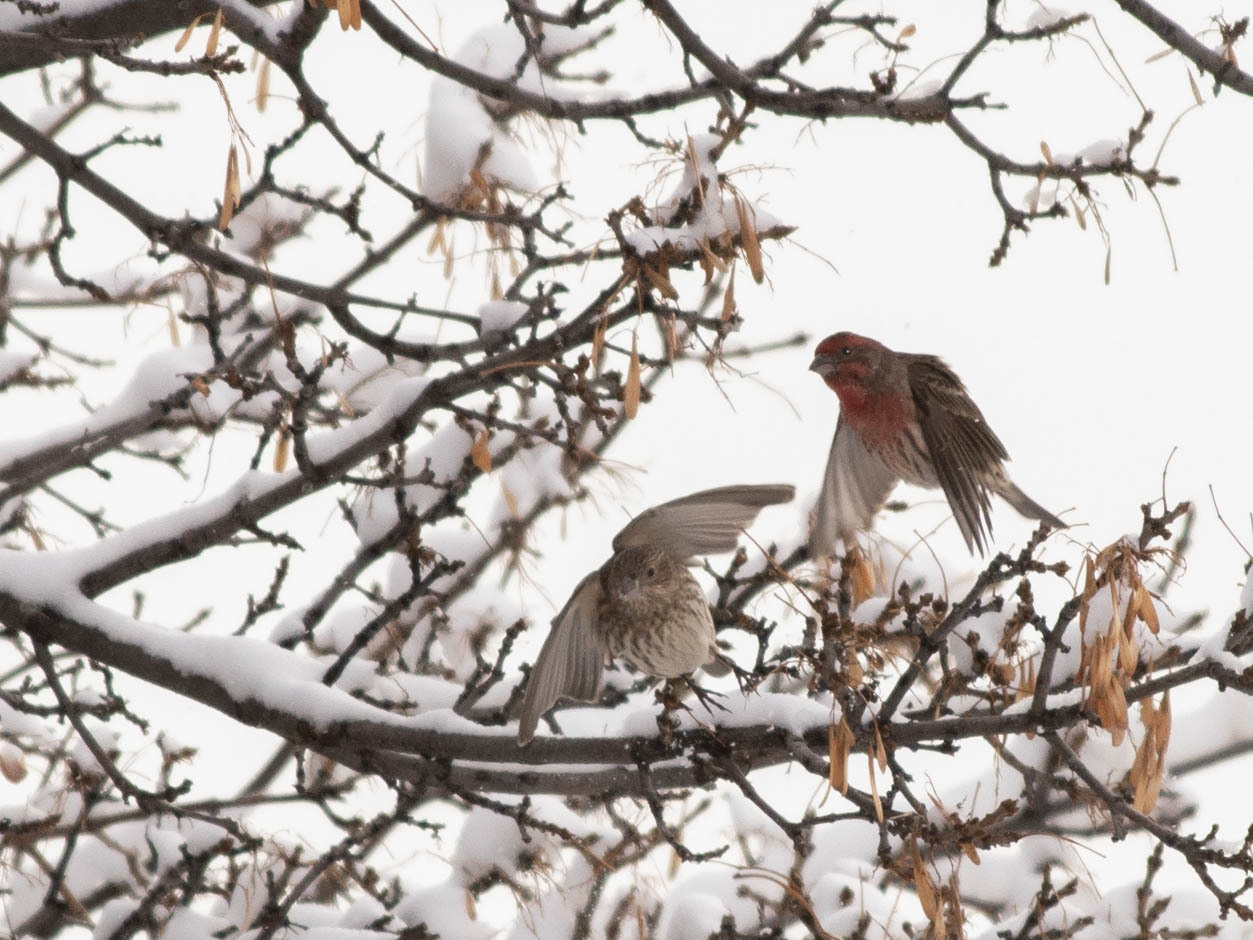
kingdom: Animalia
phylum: Chordata
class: Aves
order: Passeriformes
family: Fringillidae
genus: Haemorhous
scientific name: Haemorhous mexicanus
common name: House finch
